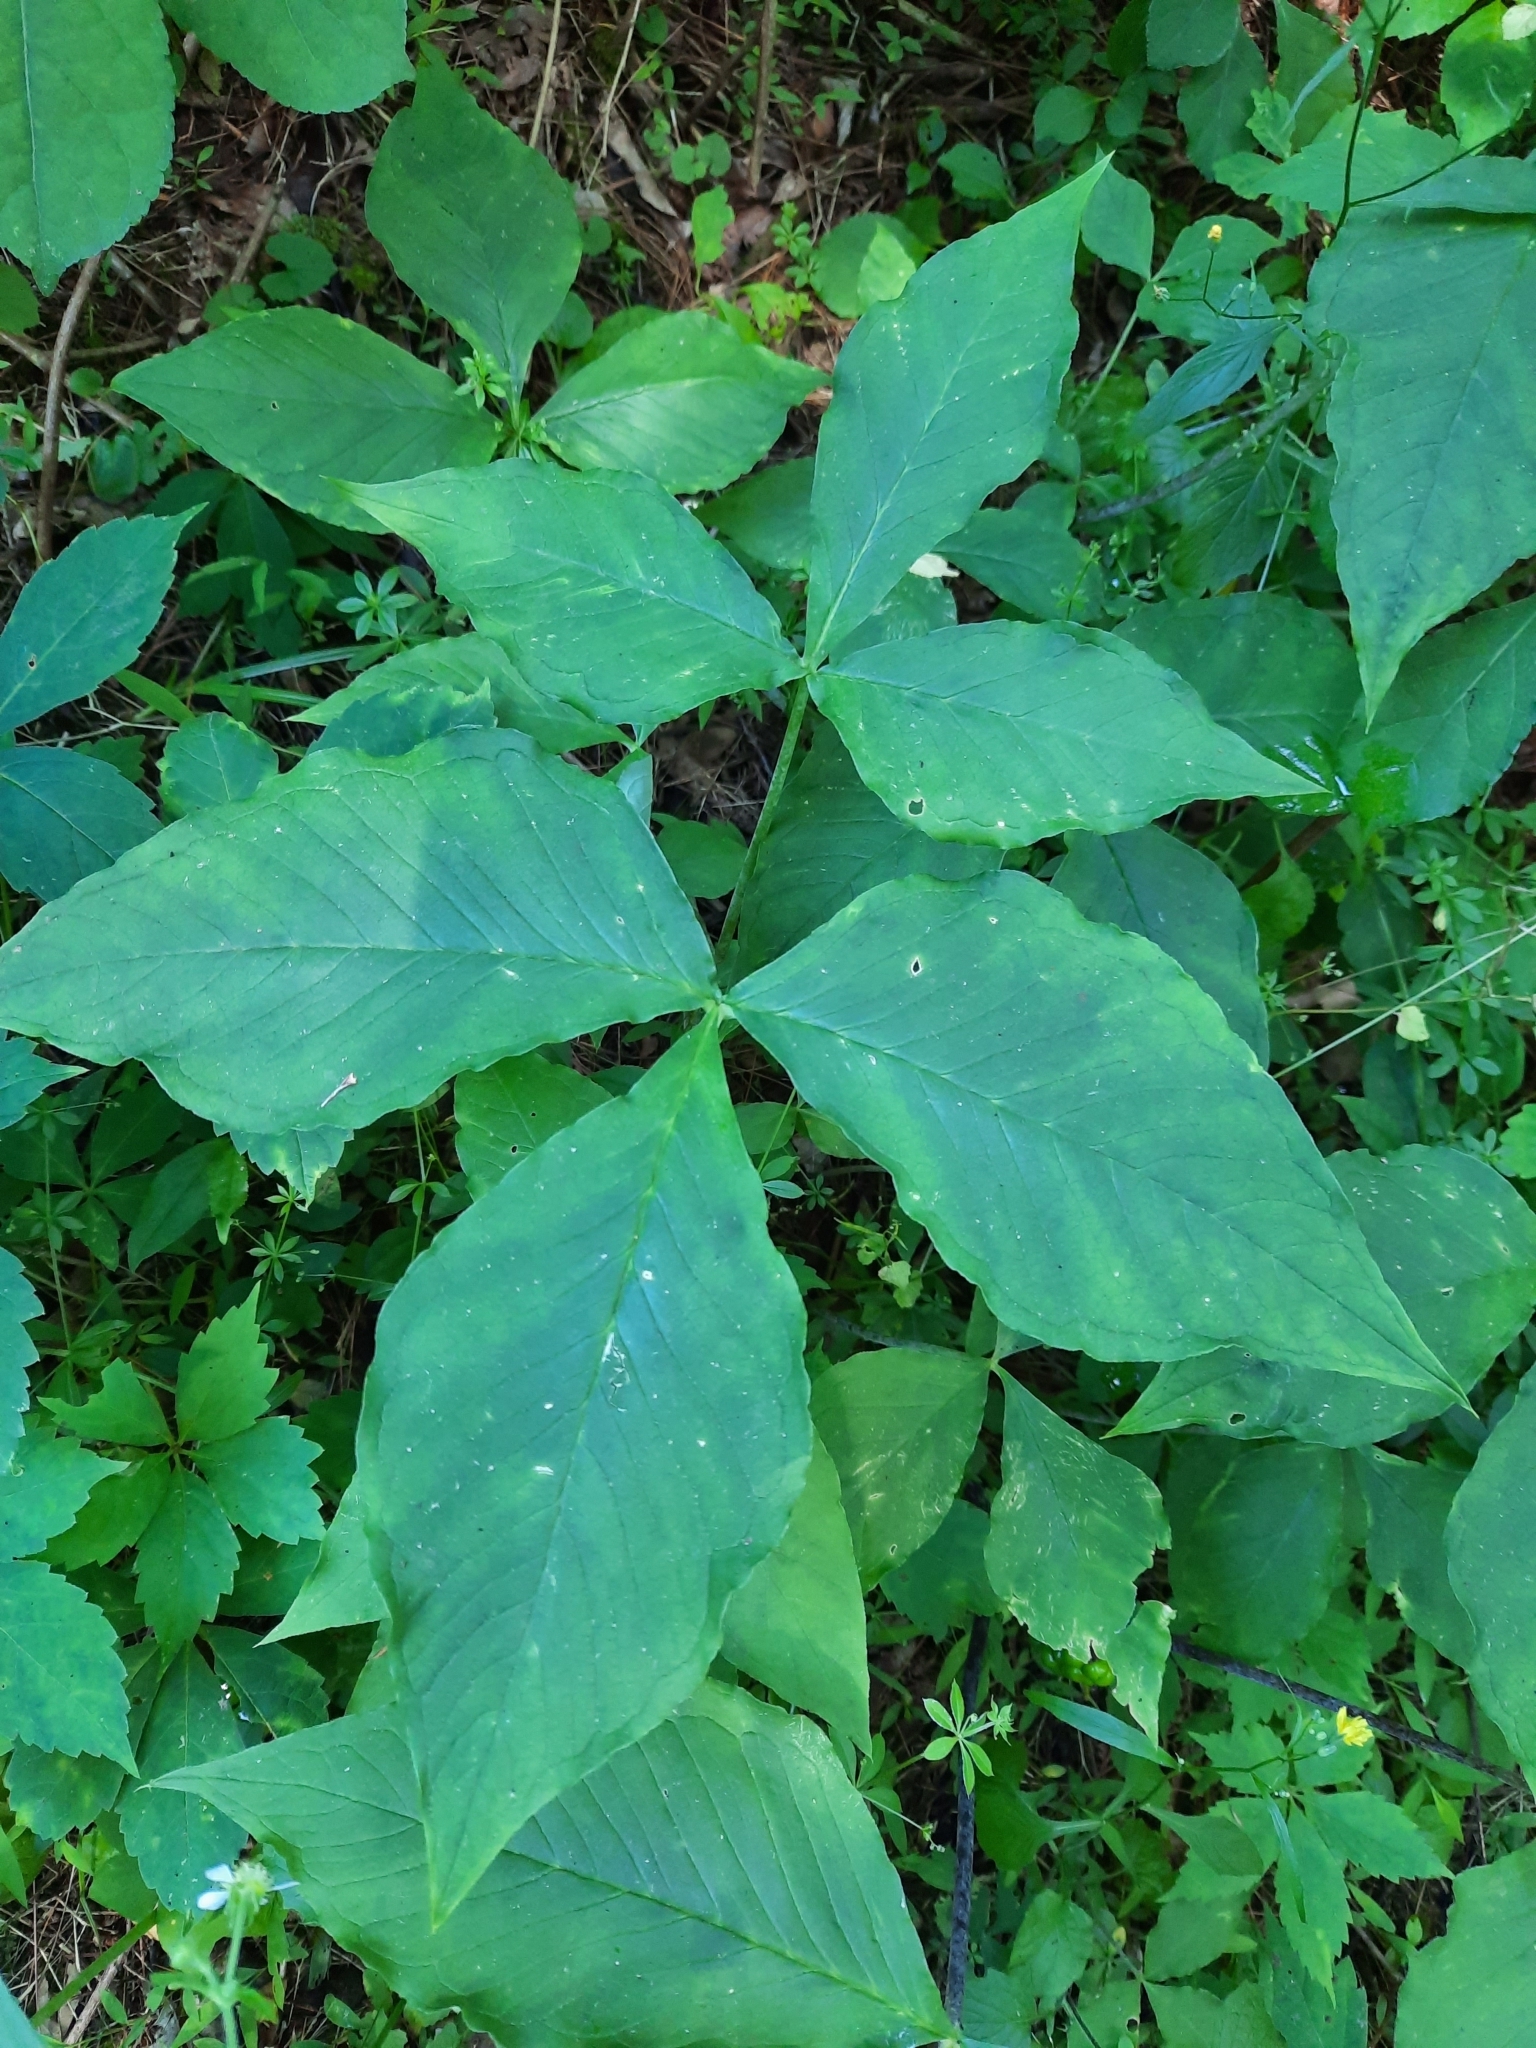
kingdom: Plantae
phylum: Tracheophyta
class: Liliopsida
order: Alismatales
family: Araceae
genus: Arisaema
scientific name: Arisaema triphyllum
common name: Jack-in-the-pulpit
